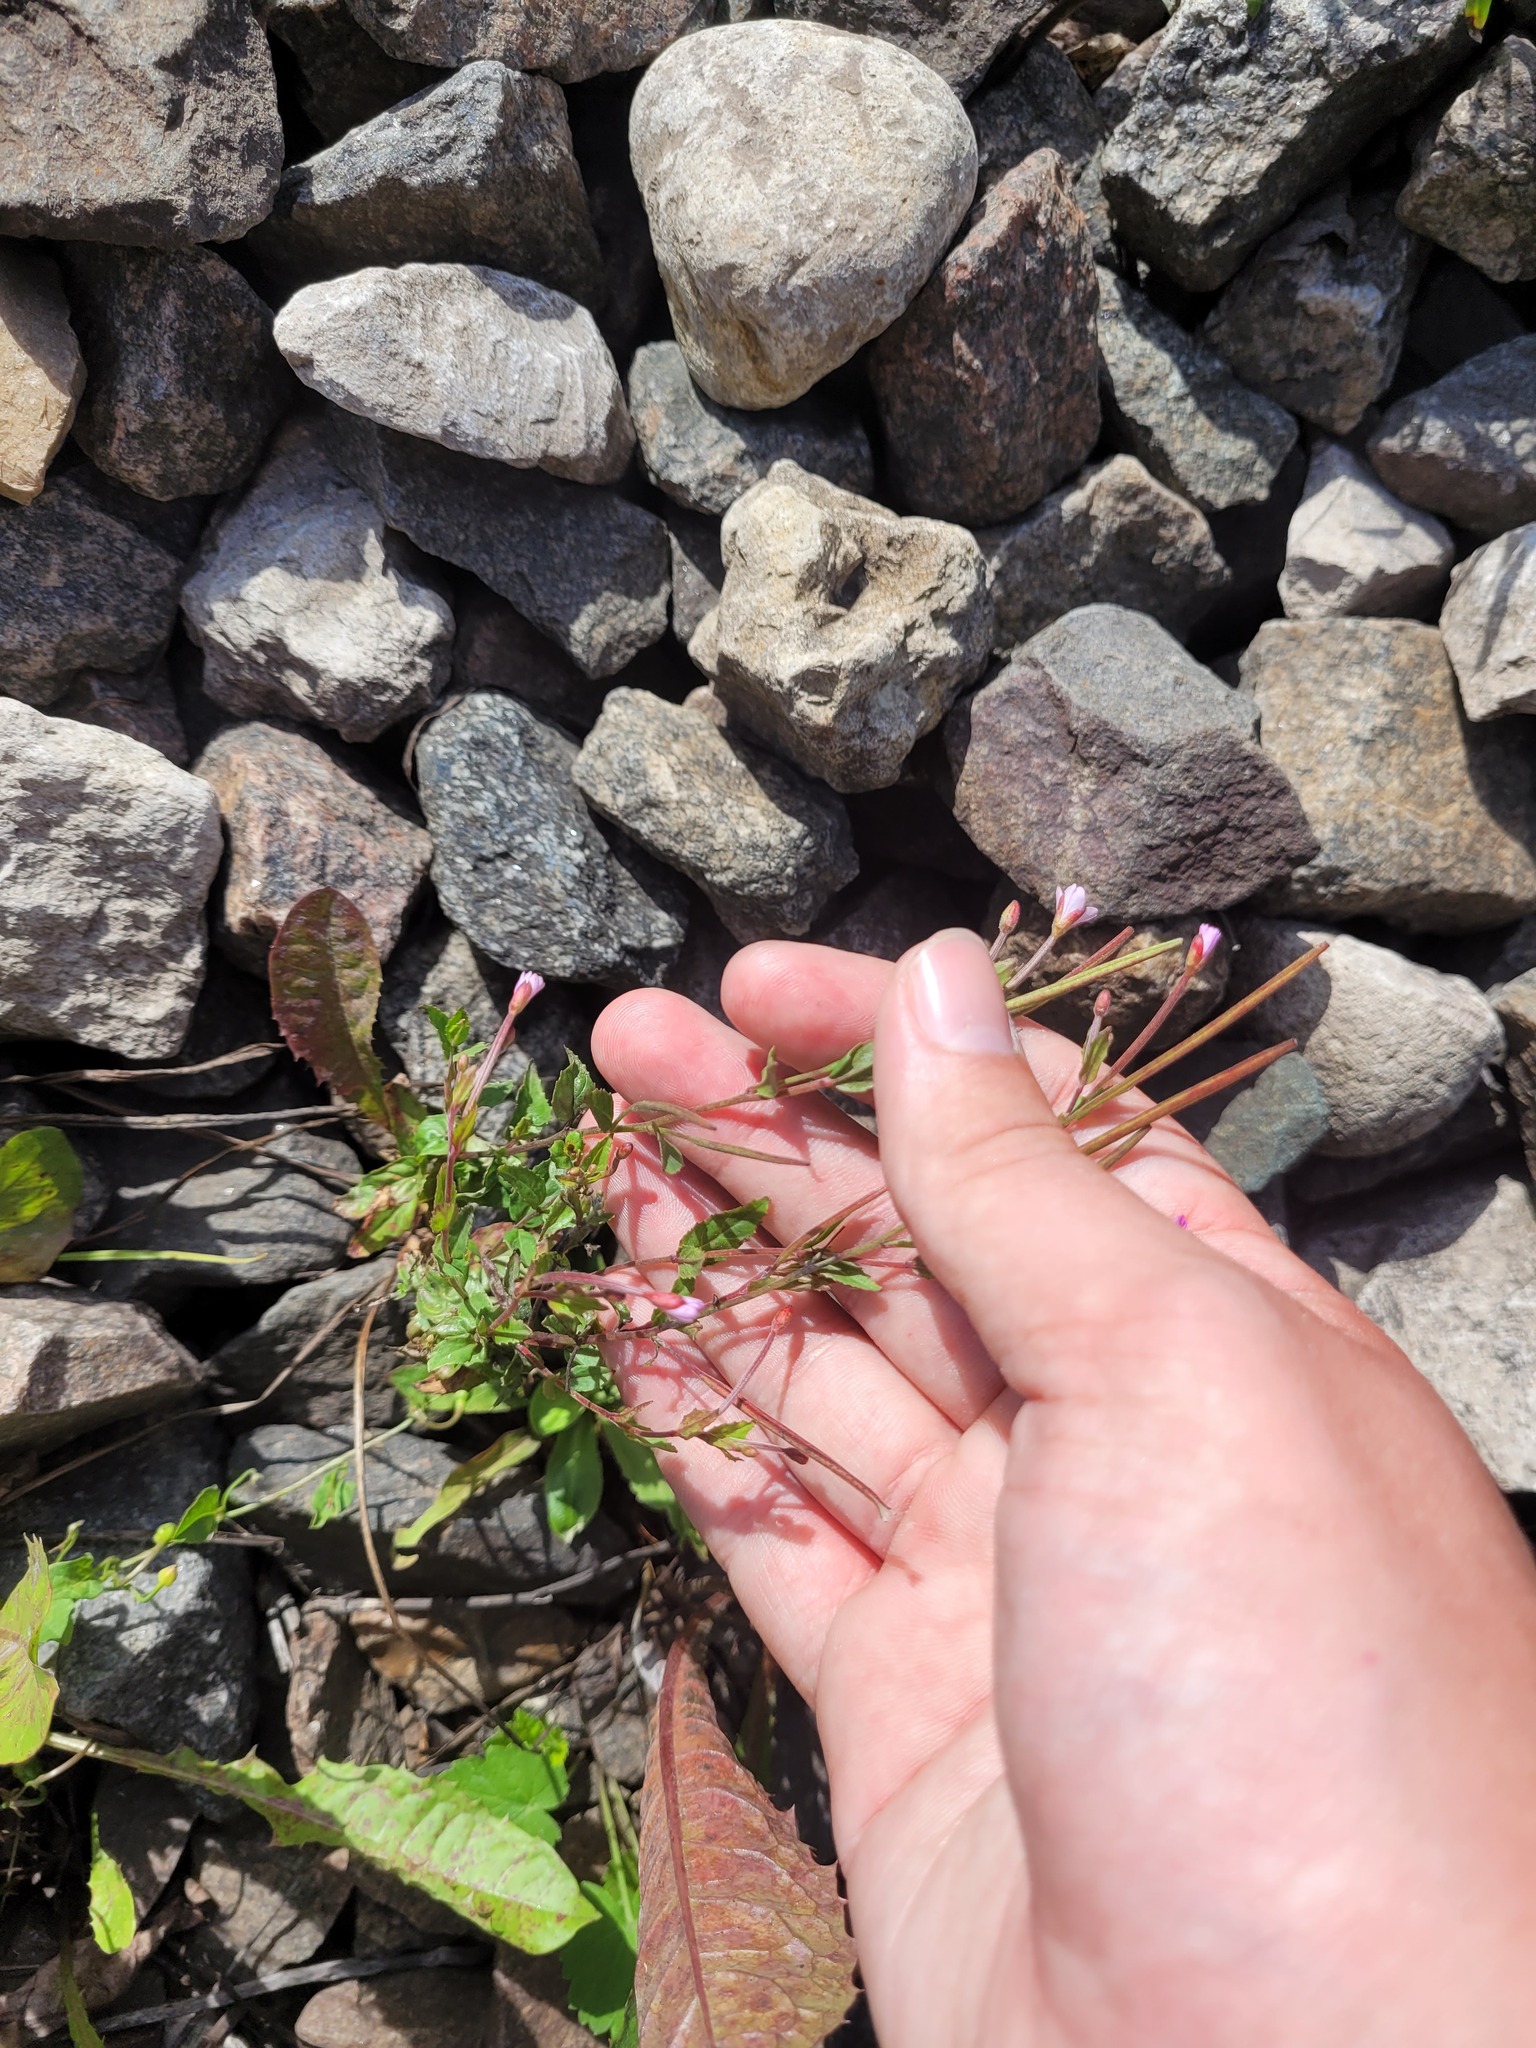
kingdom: Plantae
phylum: Tracheophyta
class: Magnoliopsida
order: Myrtales
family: Onagraceae
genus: Epilobium
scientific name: Epilobium montanum
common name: Broad-leaved willowherb
